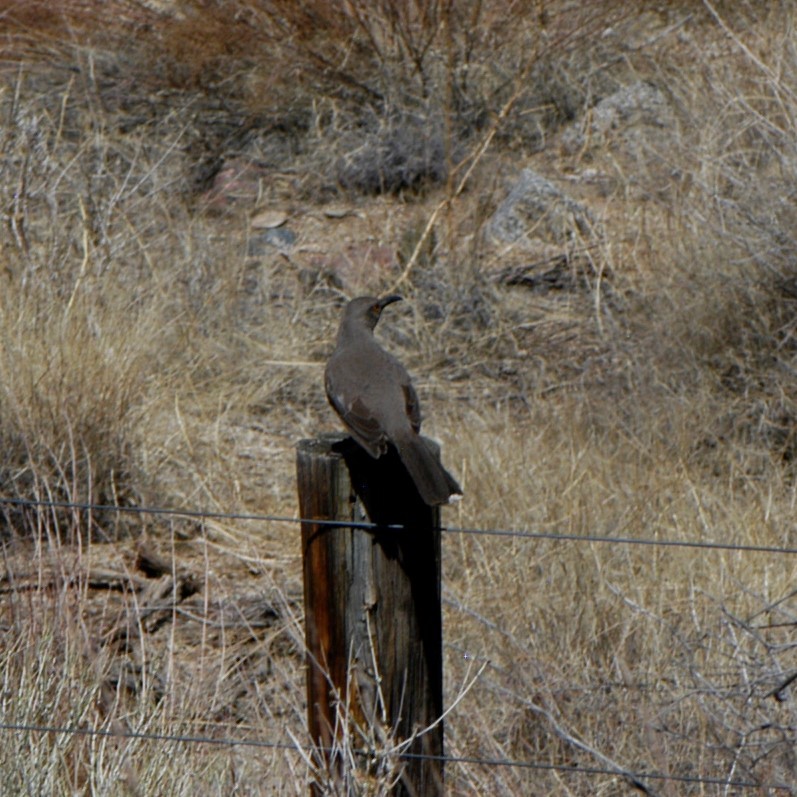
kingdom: Animalia
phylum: Chordata
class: Aves
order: Passeriformes
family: Mimidae
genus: Toxostoma
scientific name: Toxostoma curvirostre
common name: Curve-billed thrasher
